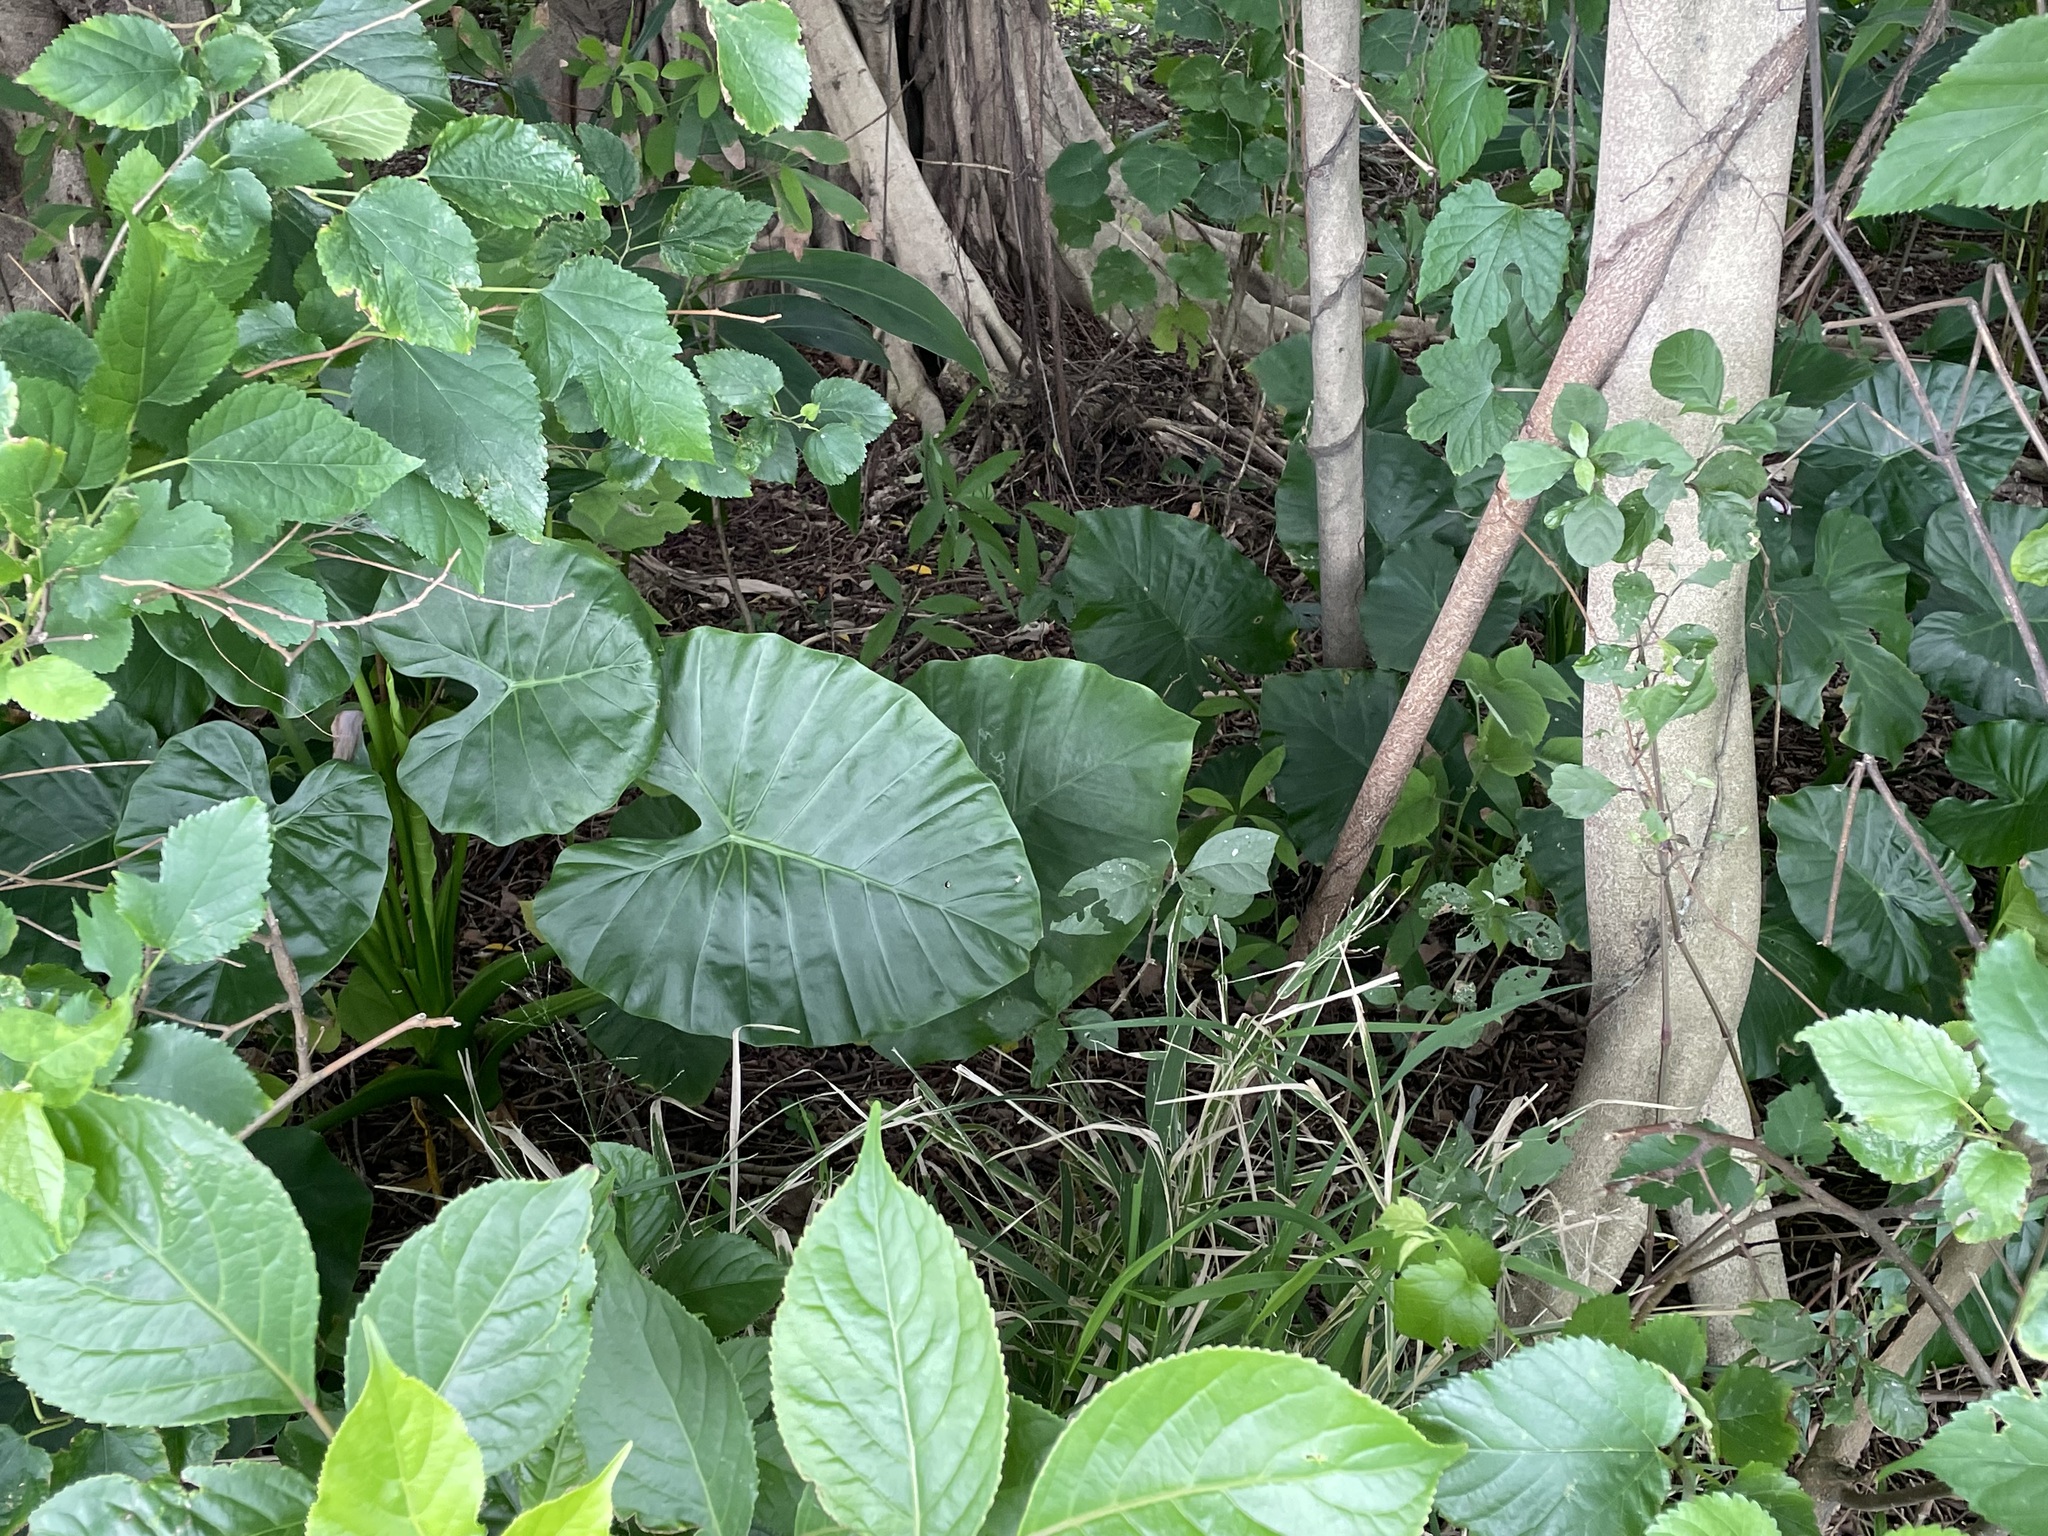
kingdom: Plantae
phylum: Tracheophyta
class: Liliopsida
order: Alismatales
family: Araceae
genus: Alocasia
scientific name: Alocasia odora
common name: Asian taro
